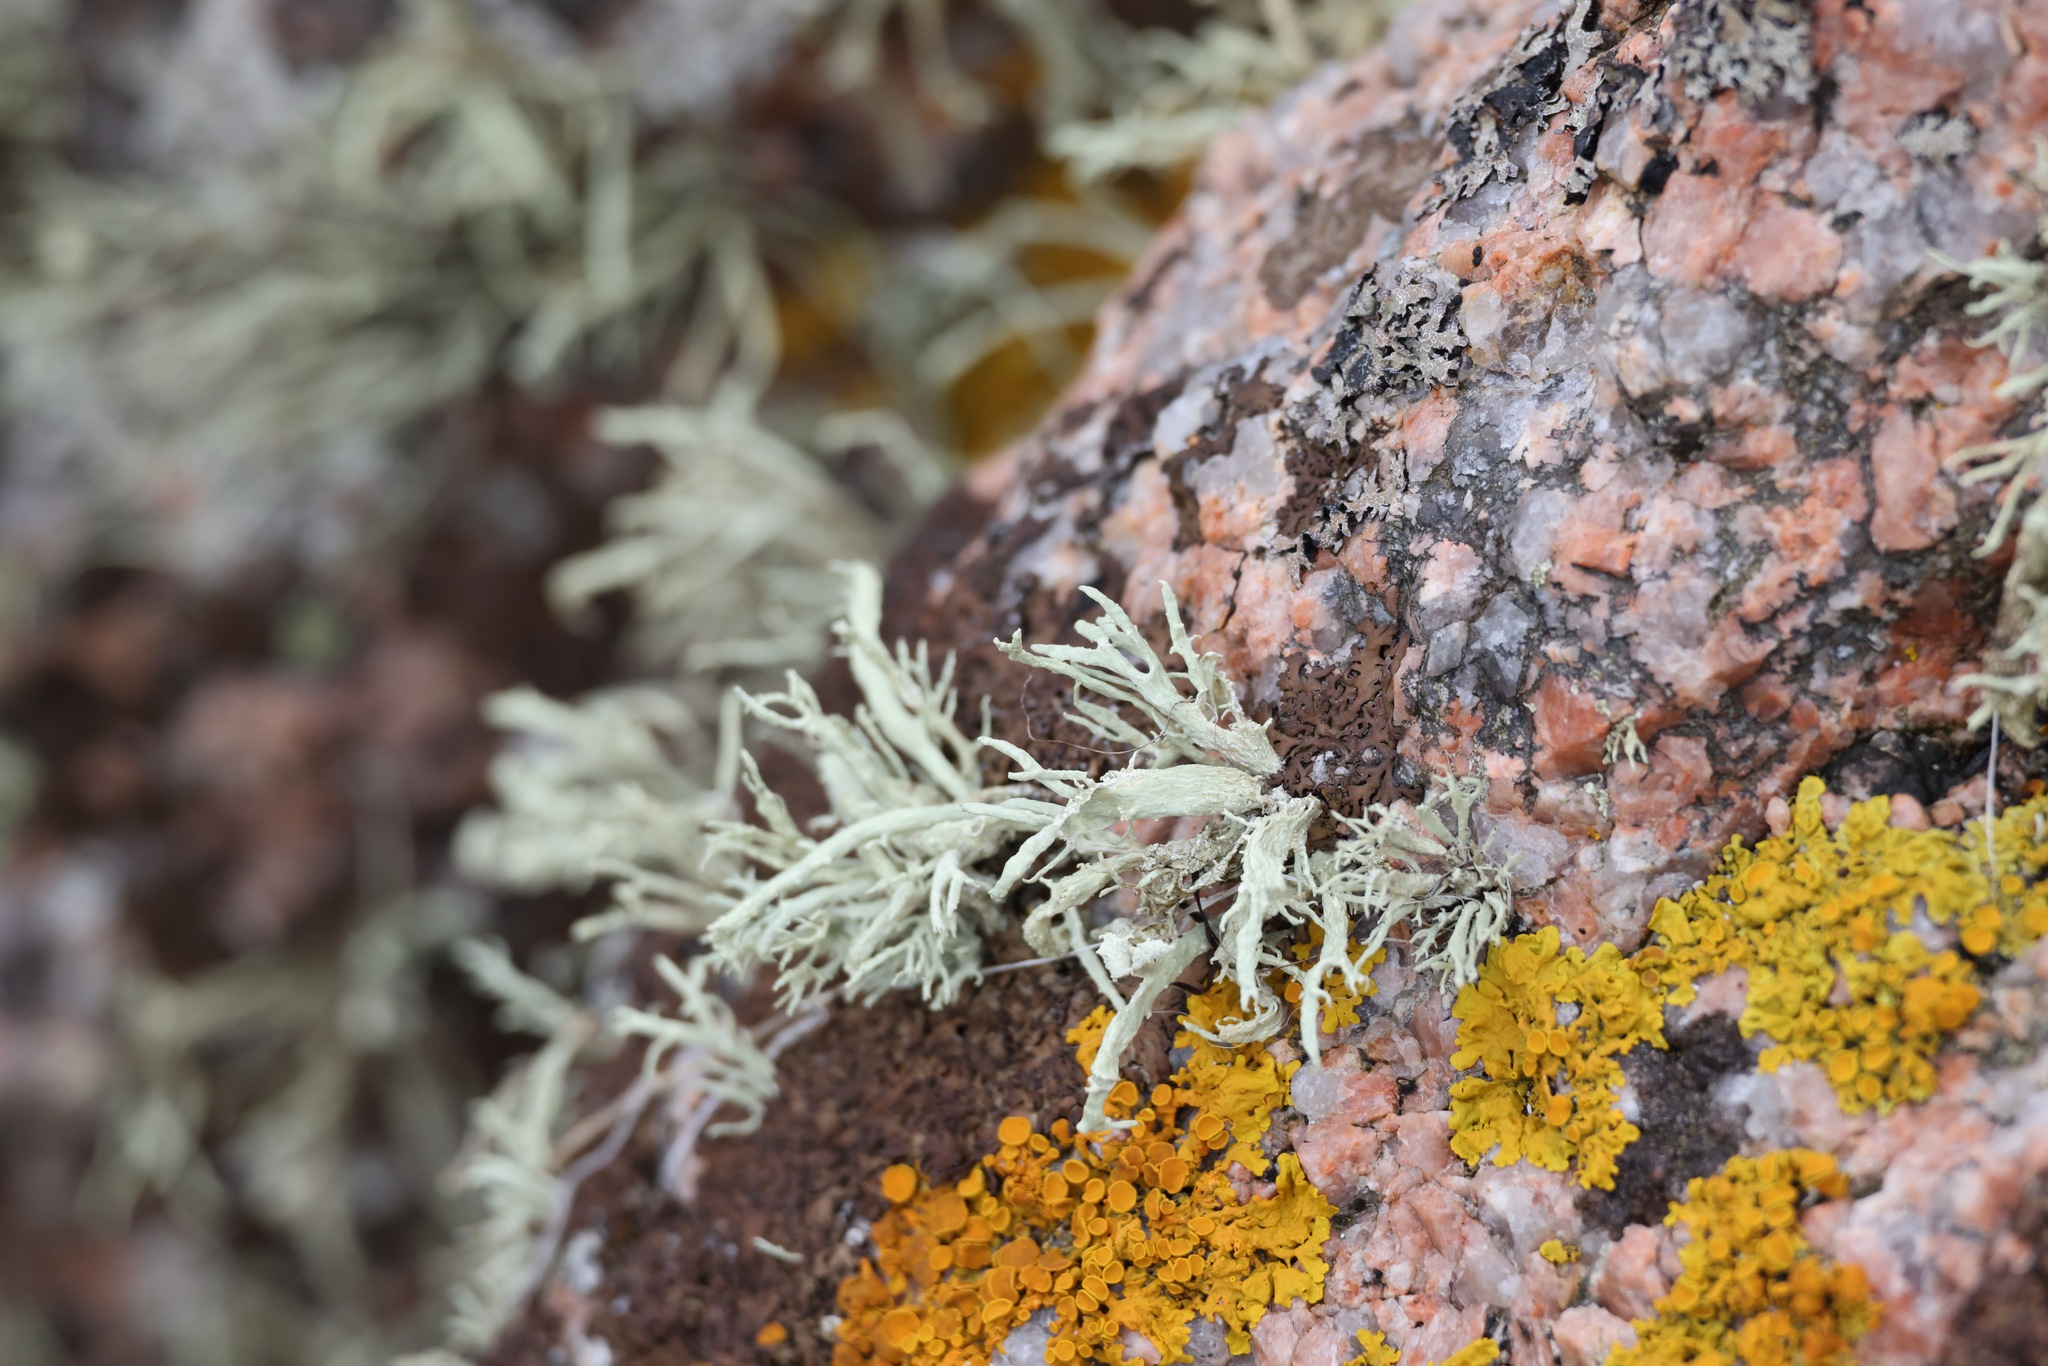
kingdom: Fungi
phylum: Ascomycota
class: Lecanoromycetes
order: Lecanorales
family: Ramalinaceae
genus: Ramalina
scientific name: Ramalina siliquosa
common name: Sea ivory
